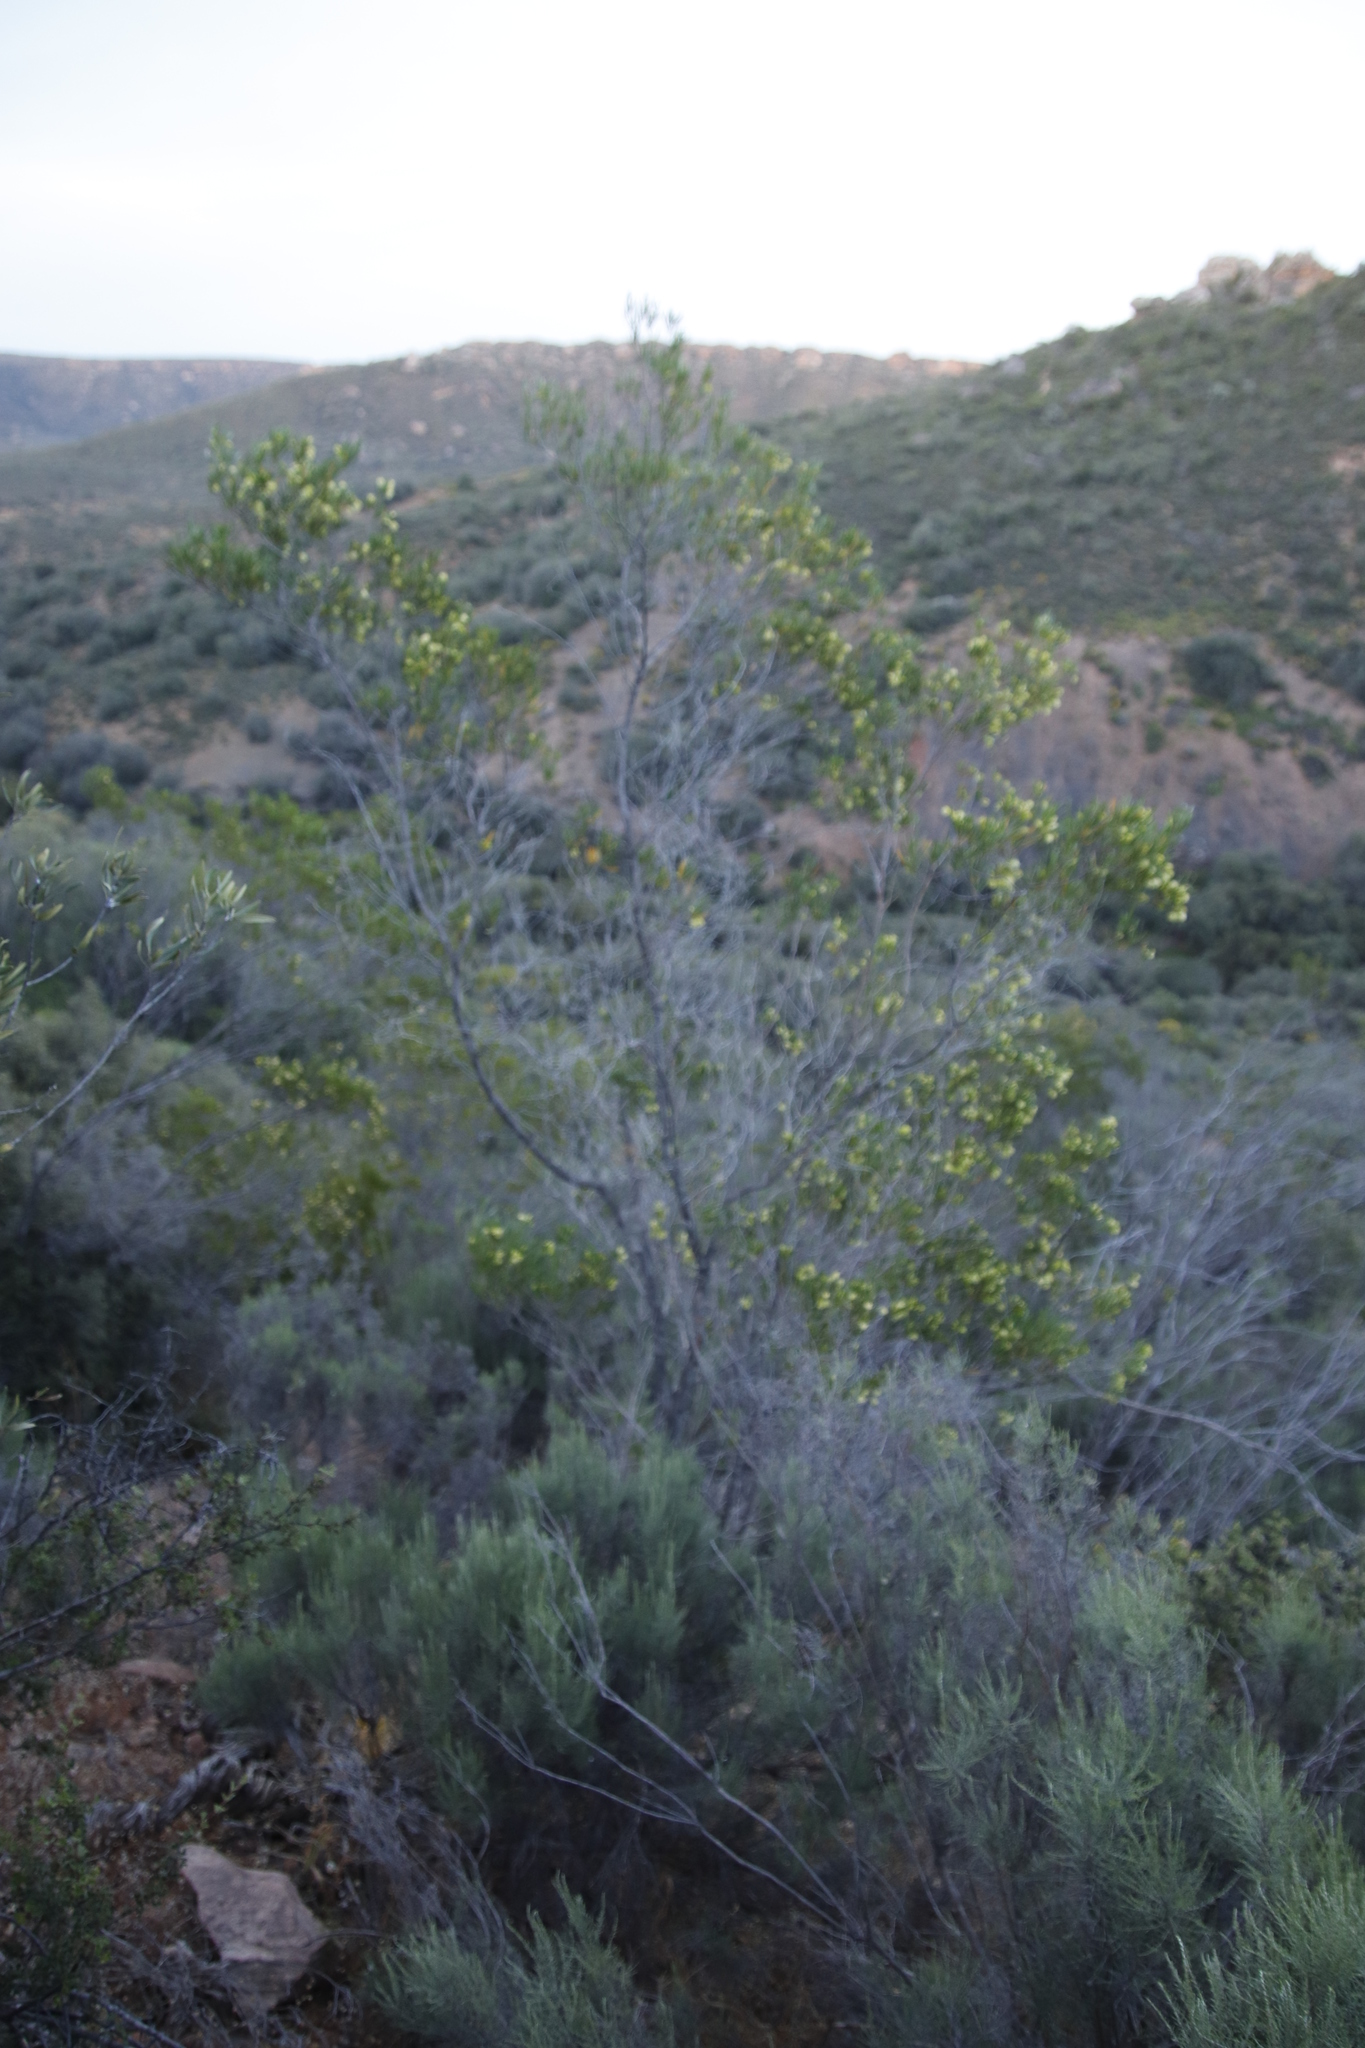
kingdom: Plantae
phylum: Tracheophyta
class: Magnoliopsida
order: Sapindales
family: Sapindaceae
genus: Dodonaea
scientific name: Dodonaea viscosa
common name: Hopbush
